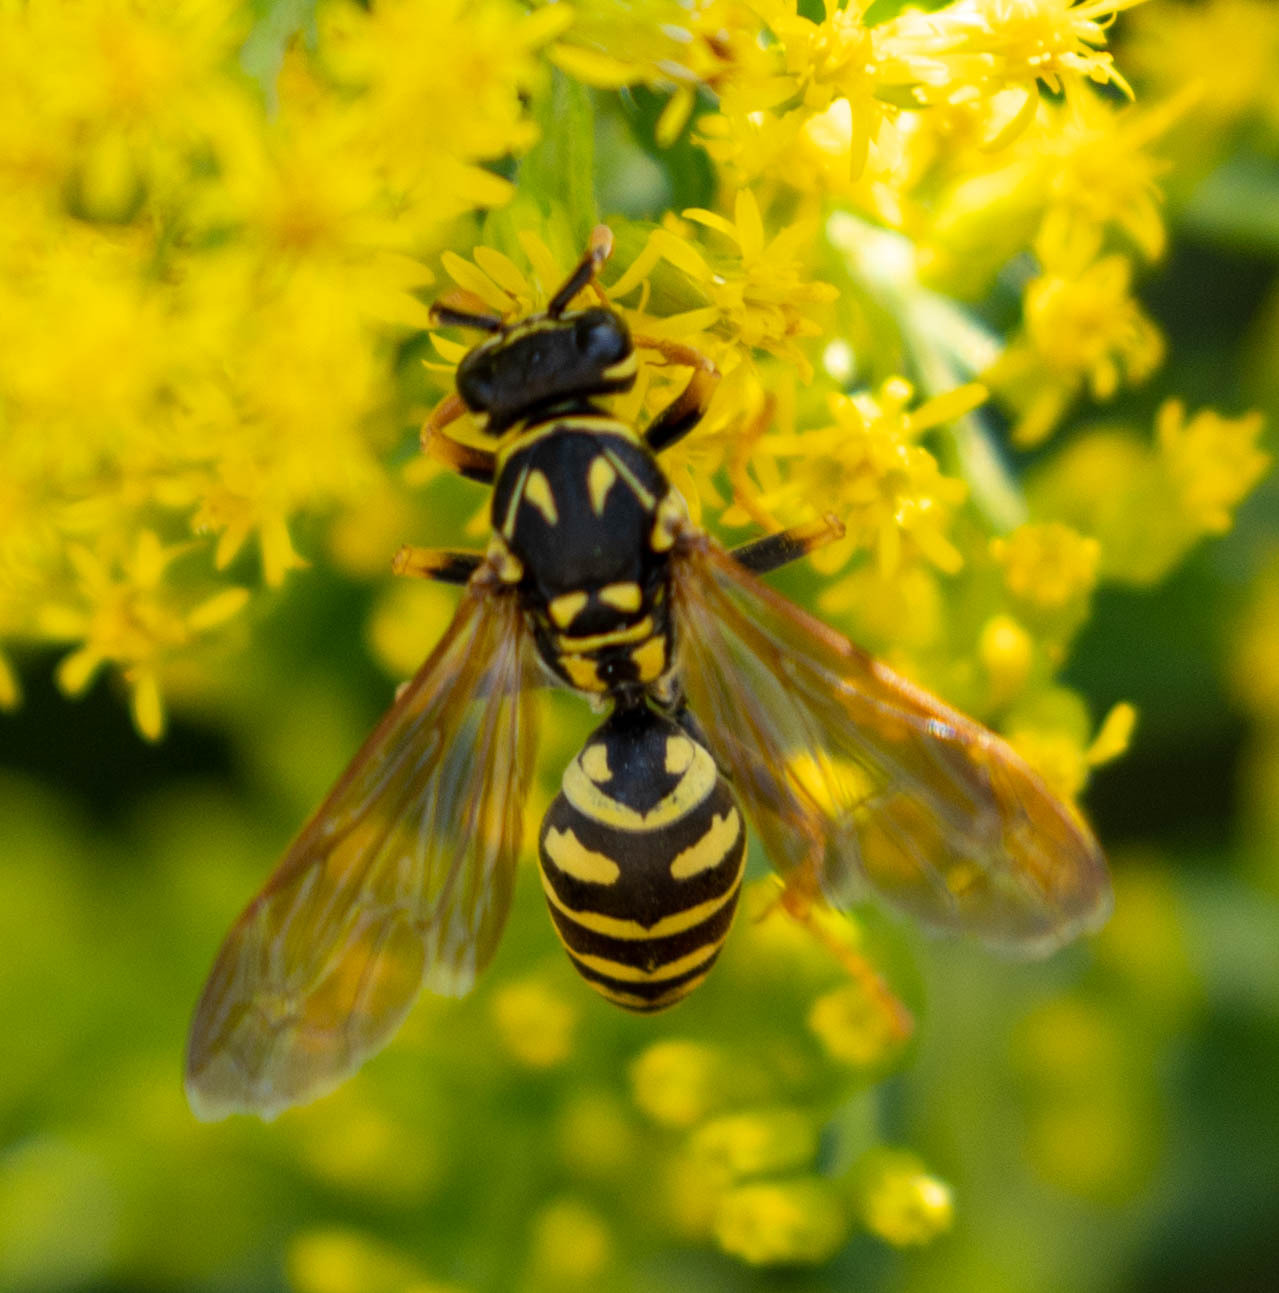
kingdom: Animalia
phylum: Arthropoda
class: Insecta
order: Hymenoptera
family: Eumenidae
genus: Polistes
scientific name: Polistes dominula
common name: Paper wasp
